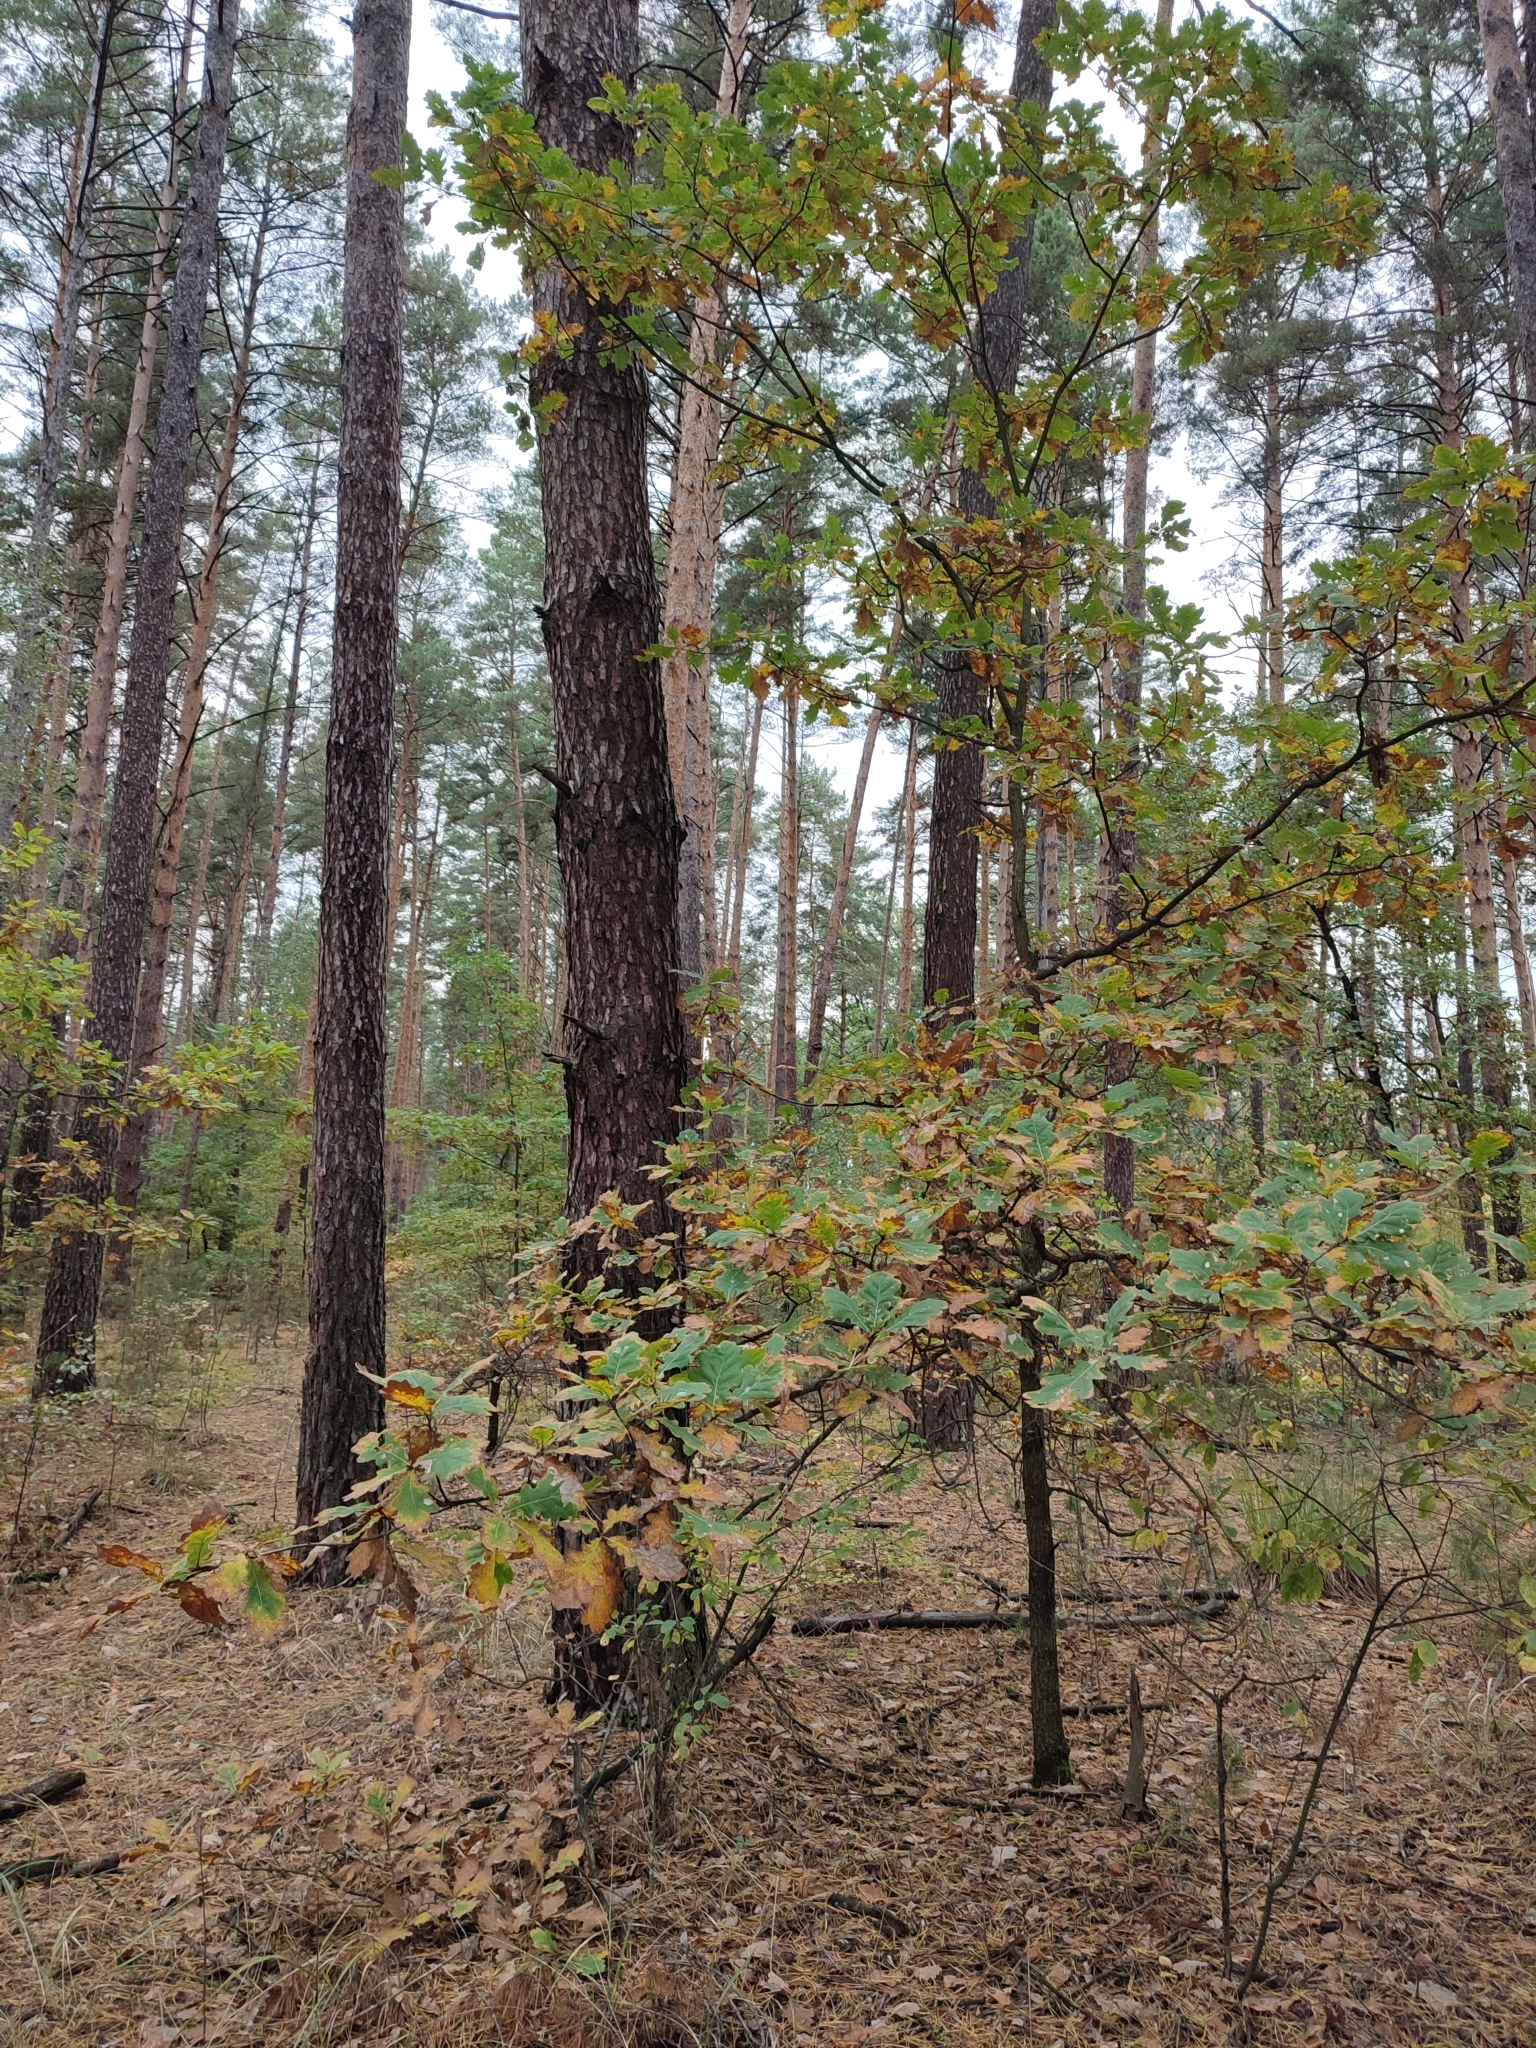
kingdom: Plantae
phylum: Tracheophyta
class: Magnoliopsida
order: Fagales
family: Fagaceae
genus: Quercus
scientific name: Quercus robur
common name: Pedunculate oak
